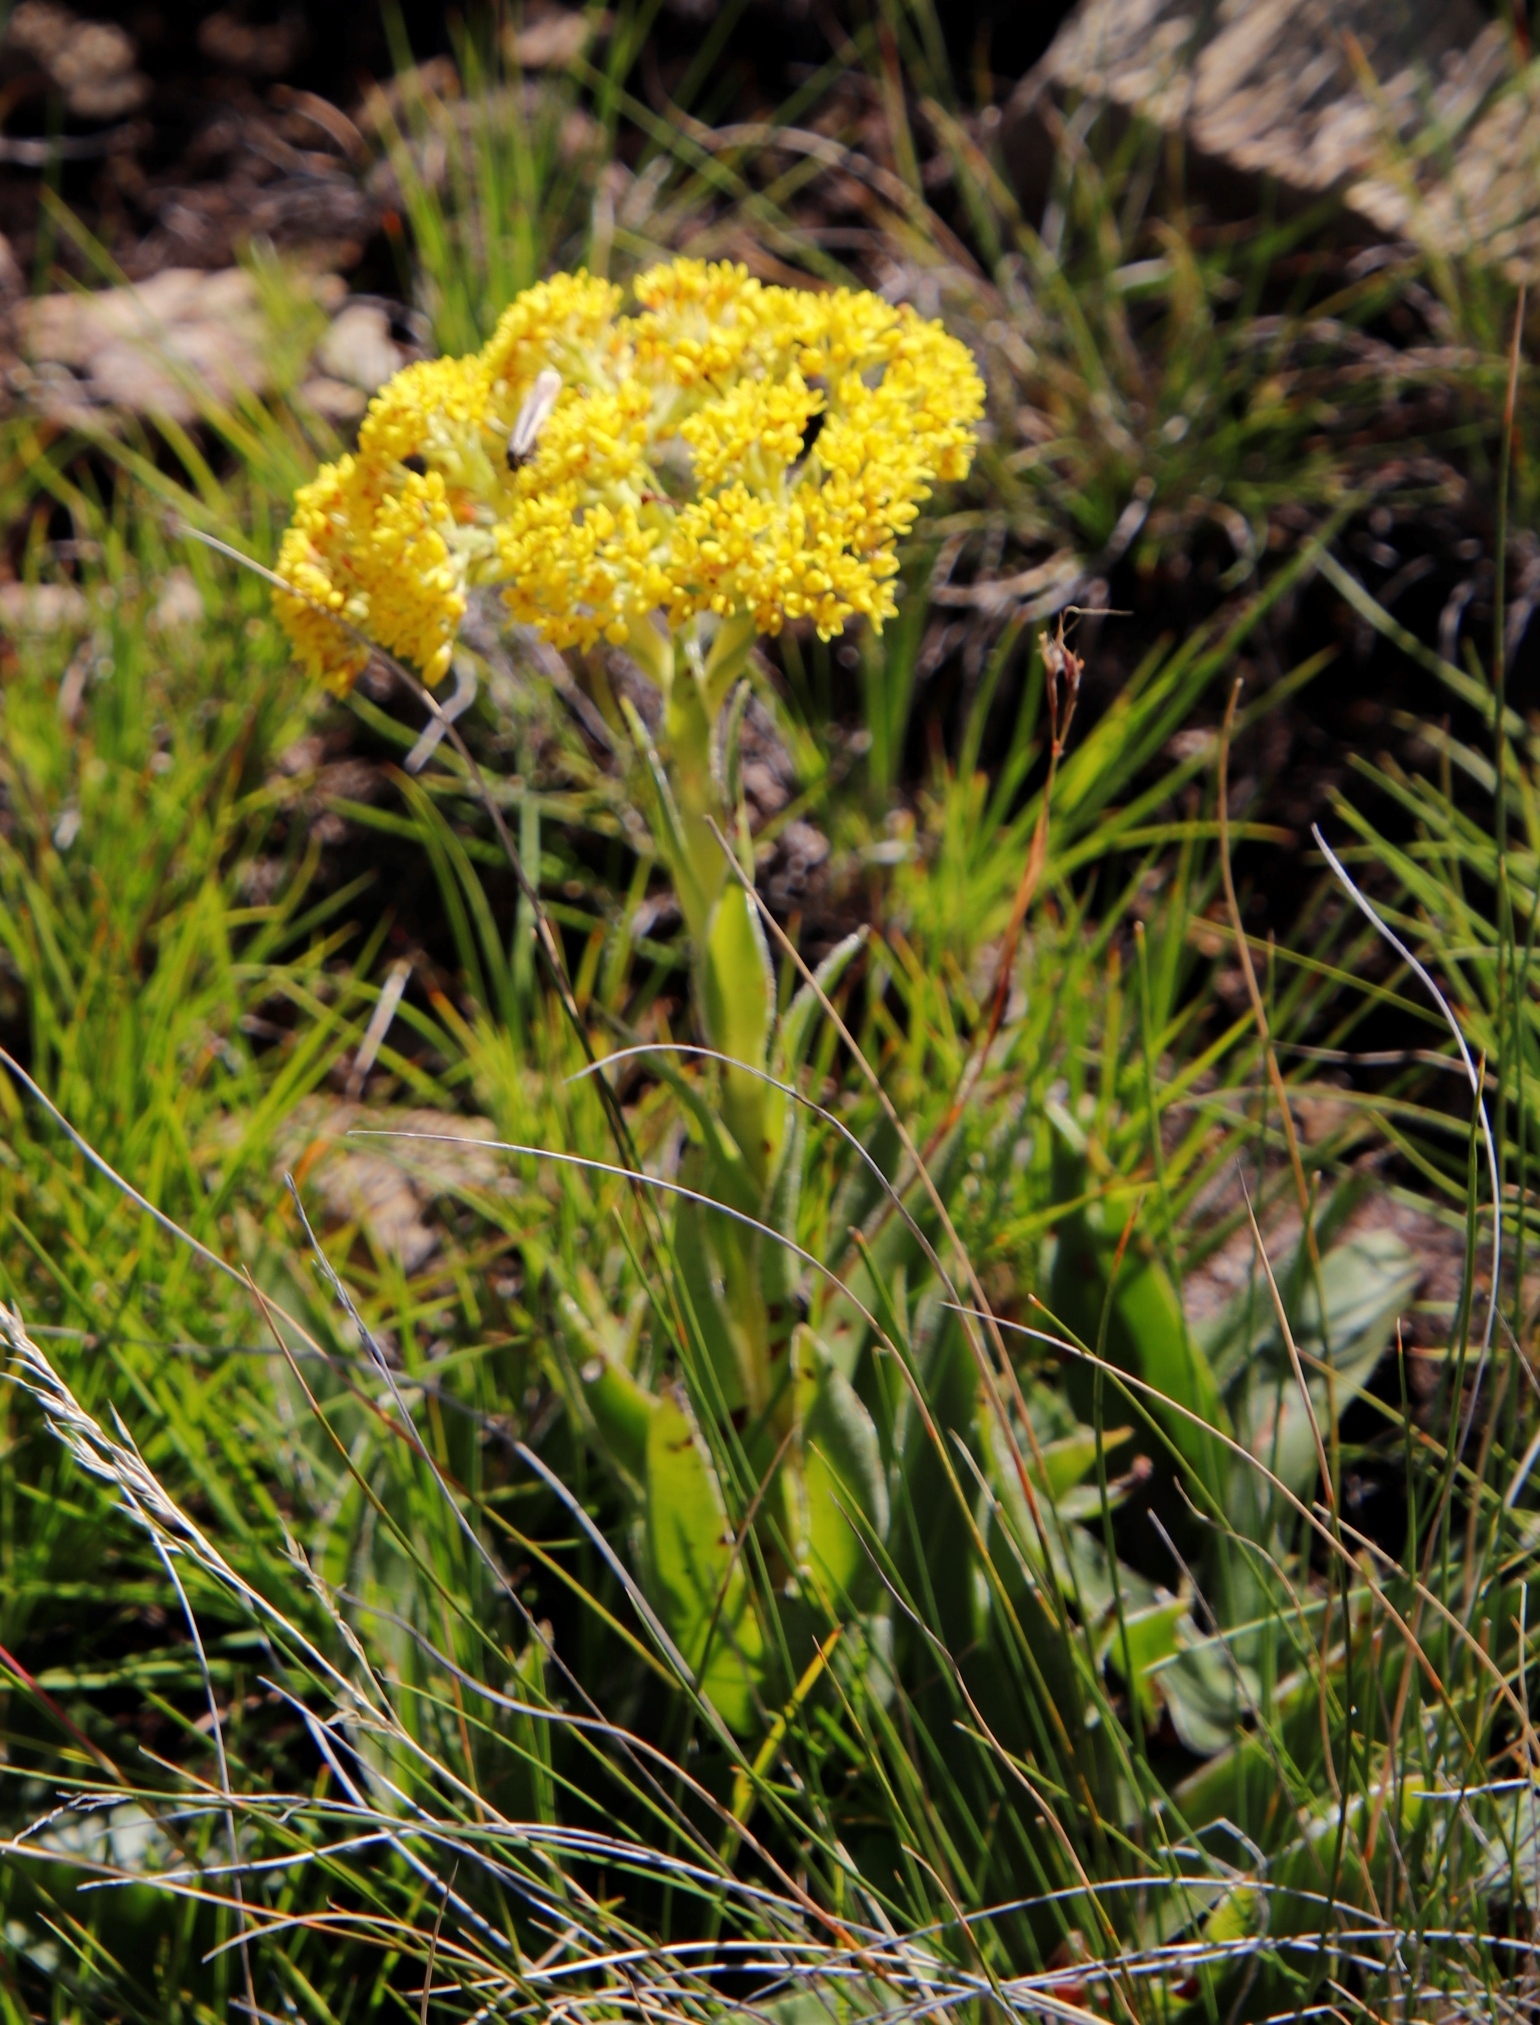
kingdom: Plantae
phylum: Tracheophyta
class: Magnoliopsida
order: Saxifragales
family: Crassulaceae
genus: Crassula
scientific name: Crassula vaginata
